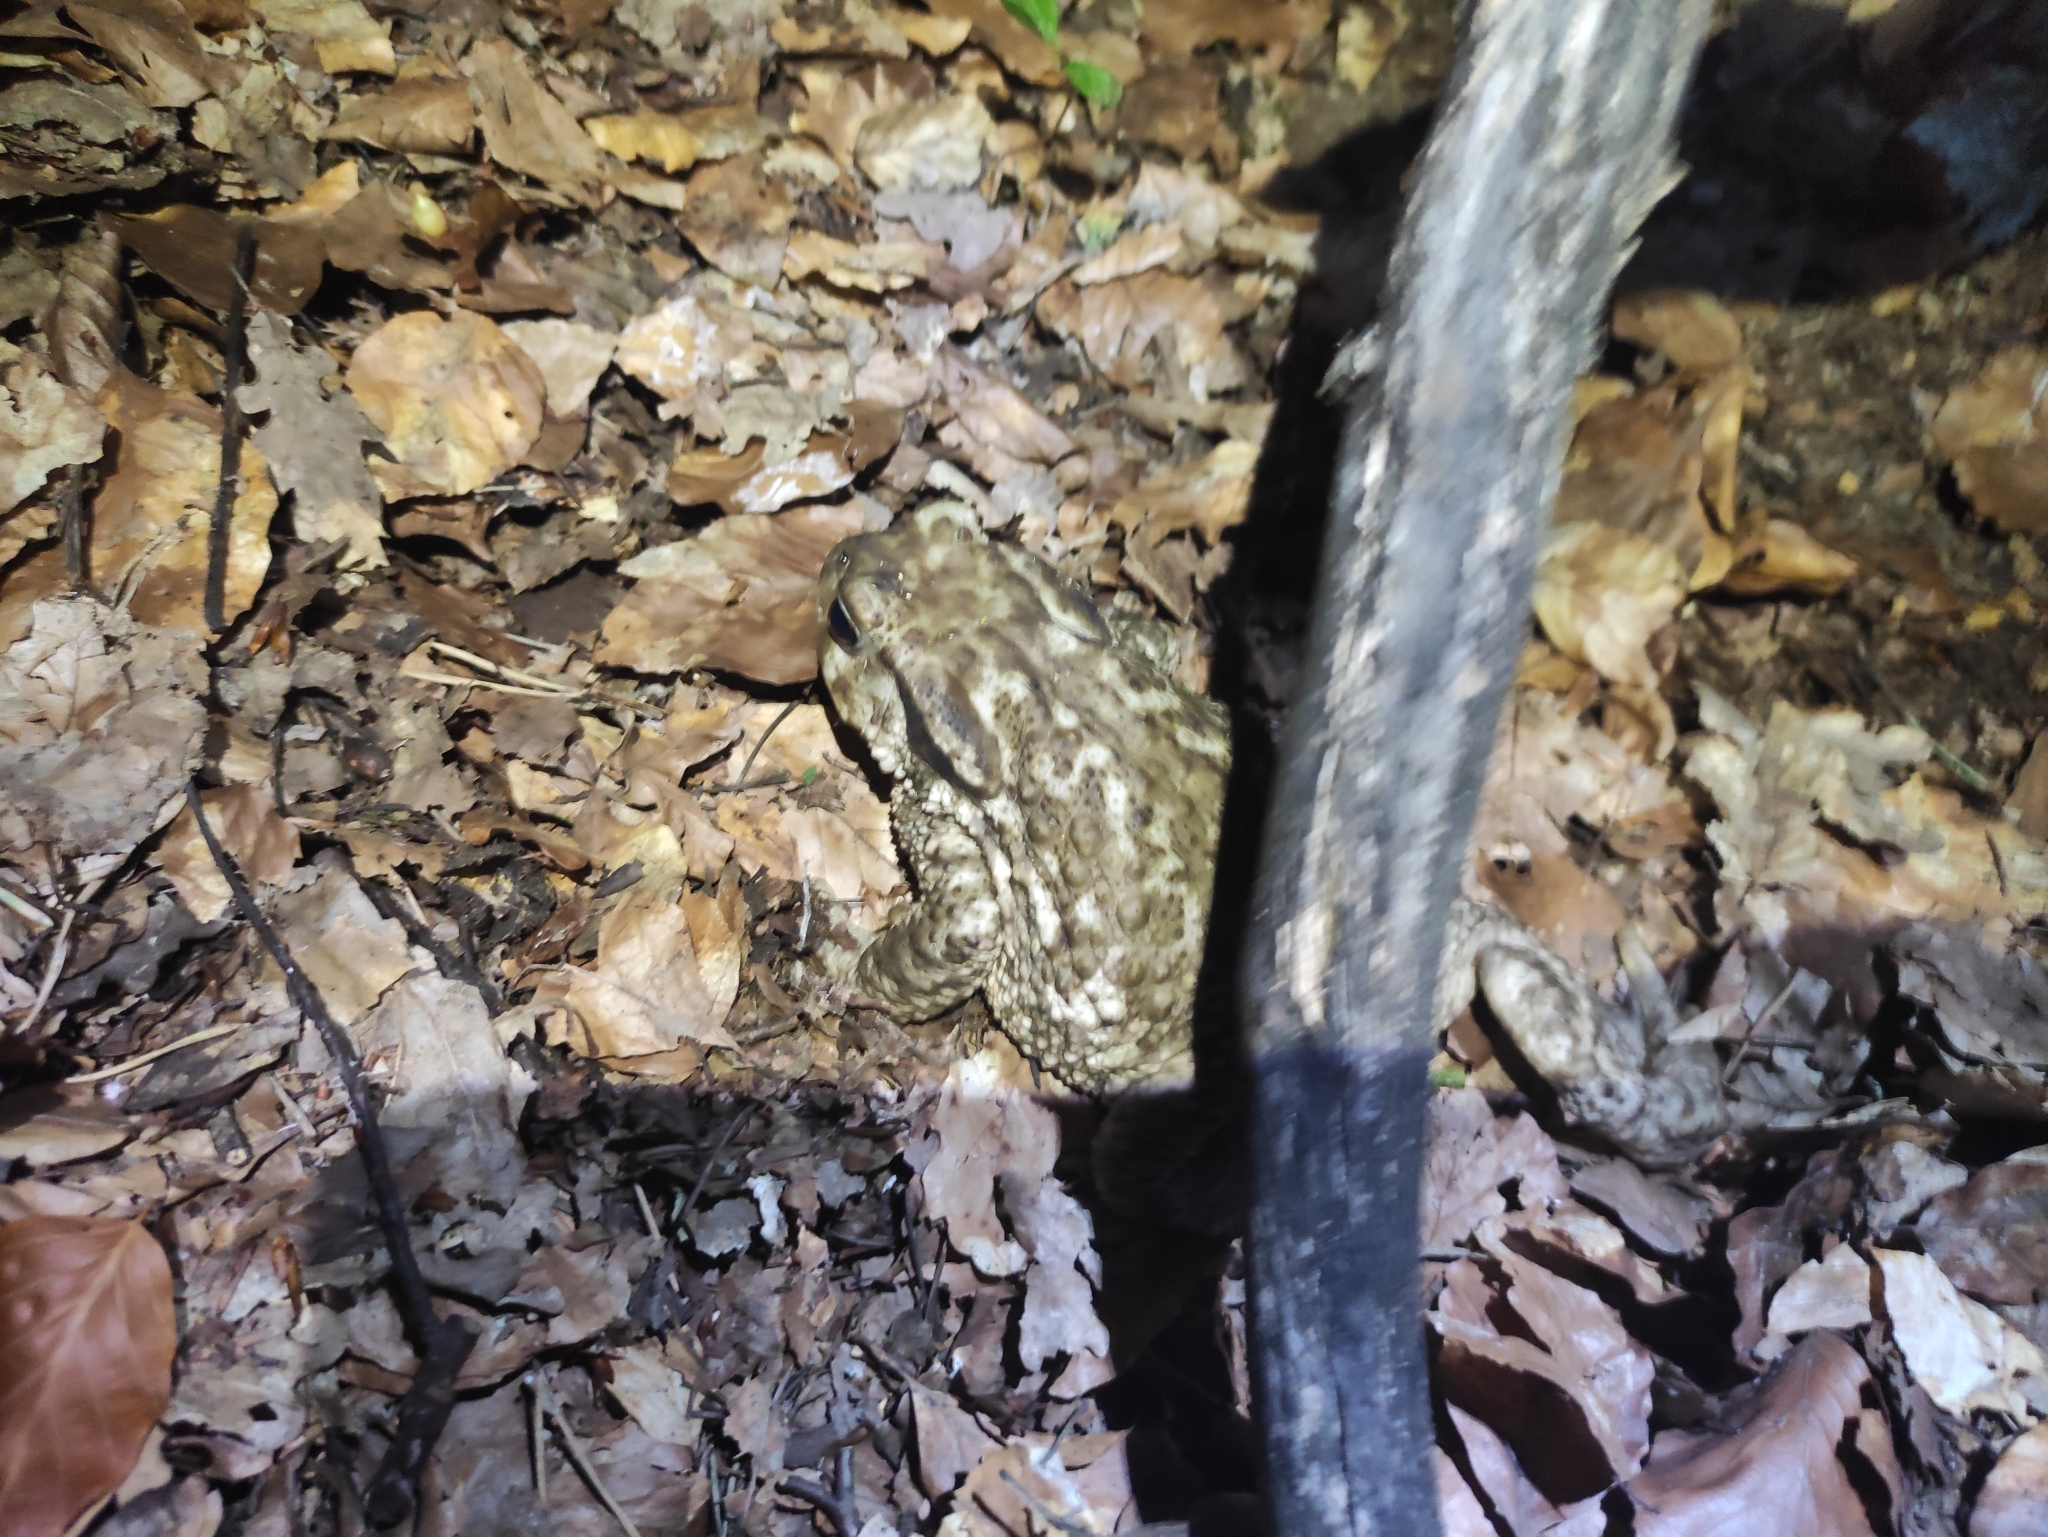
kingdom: Animalia
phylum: Chordata
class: Amphibia
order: Anura
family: Bufonidae
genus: Bufo
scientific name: Bufo spinosus
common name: Western common toad
